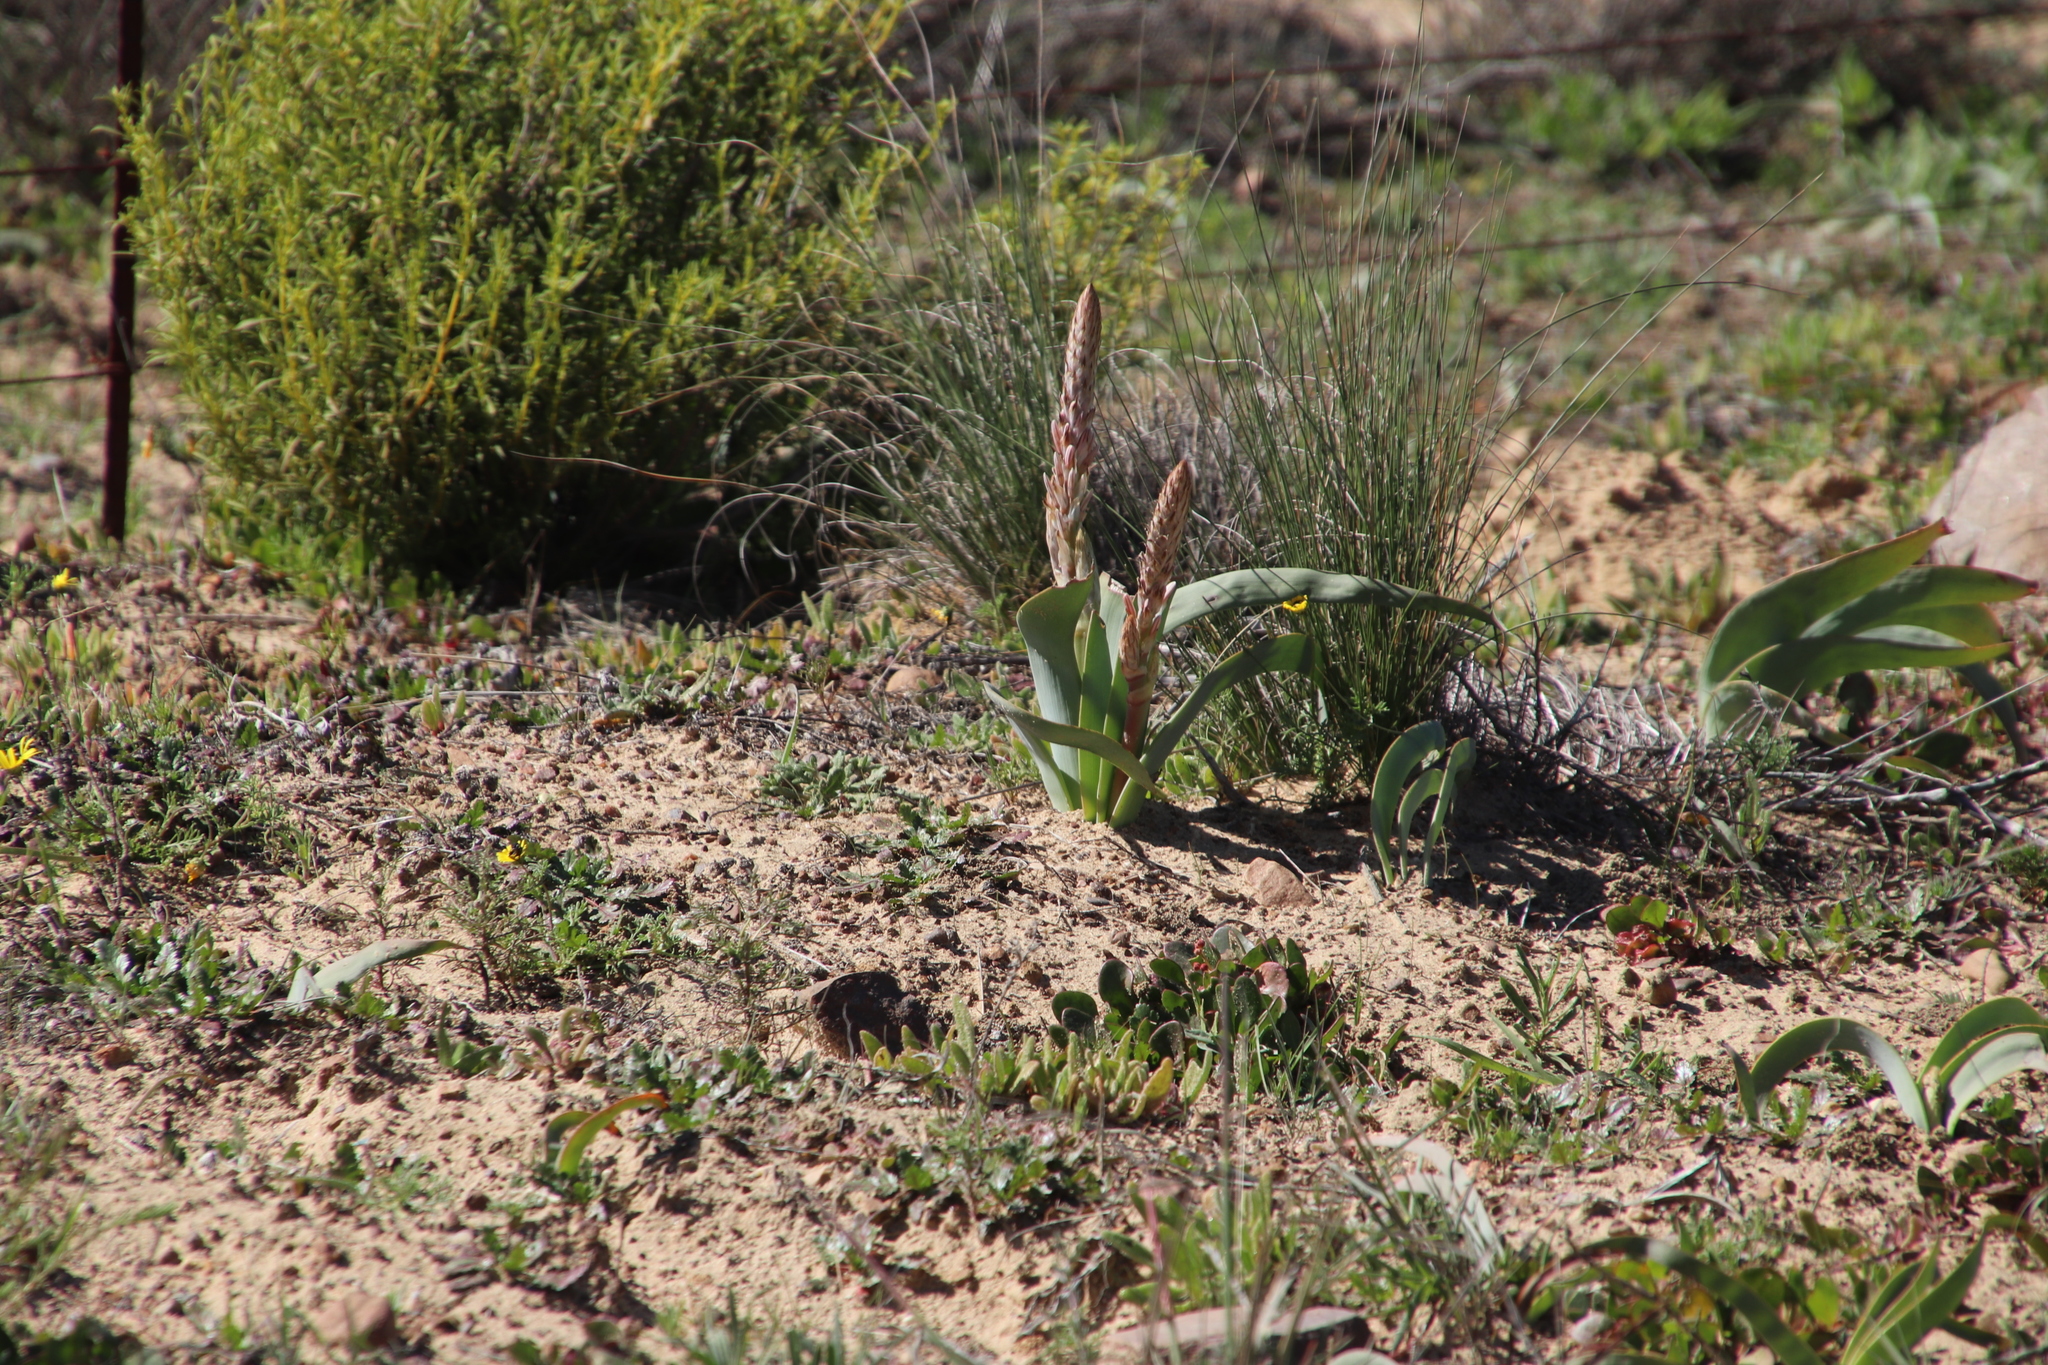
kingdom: Plantae
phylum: Tracheophyta
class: Liliopsida
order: Asparagales
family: Asphodelaceae
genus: Trachyandra
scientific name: Trachyandra falcata
